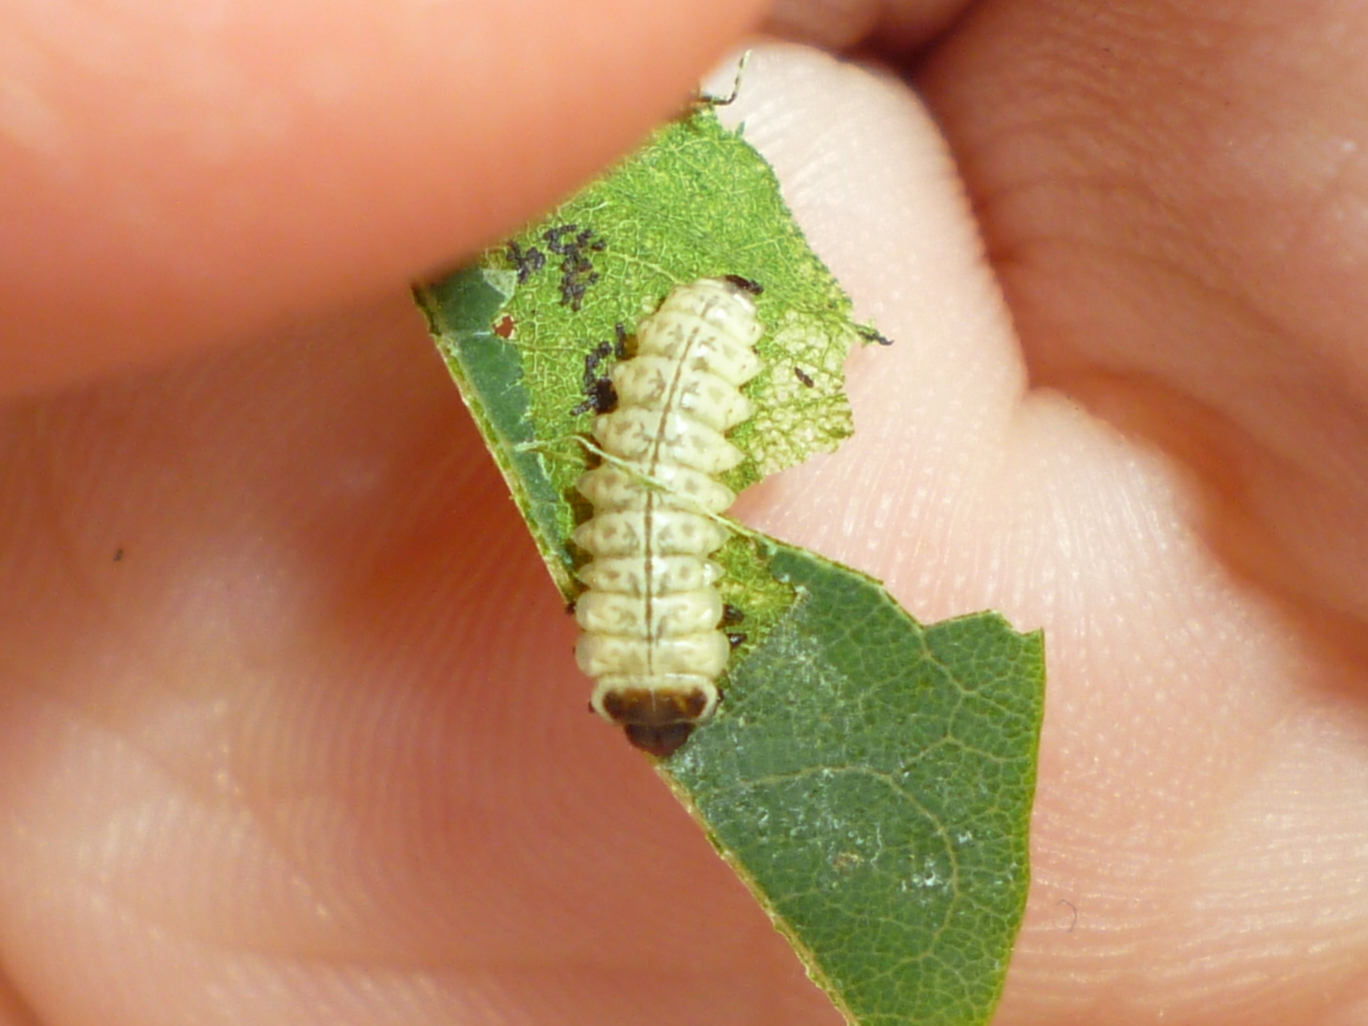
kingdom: Animalia
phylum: Arthropoda
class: Insecta
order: Coleoptera
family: Chrysomelidae
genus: Odontota
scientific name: Odontota dorsalis
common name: Locust leaf-miner beetle
